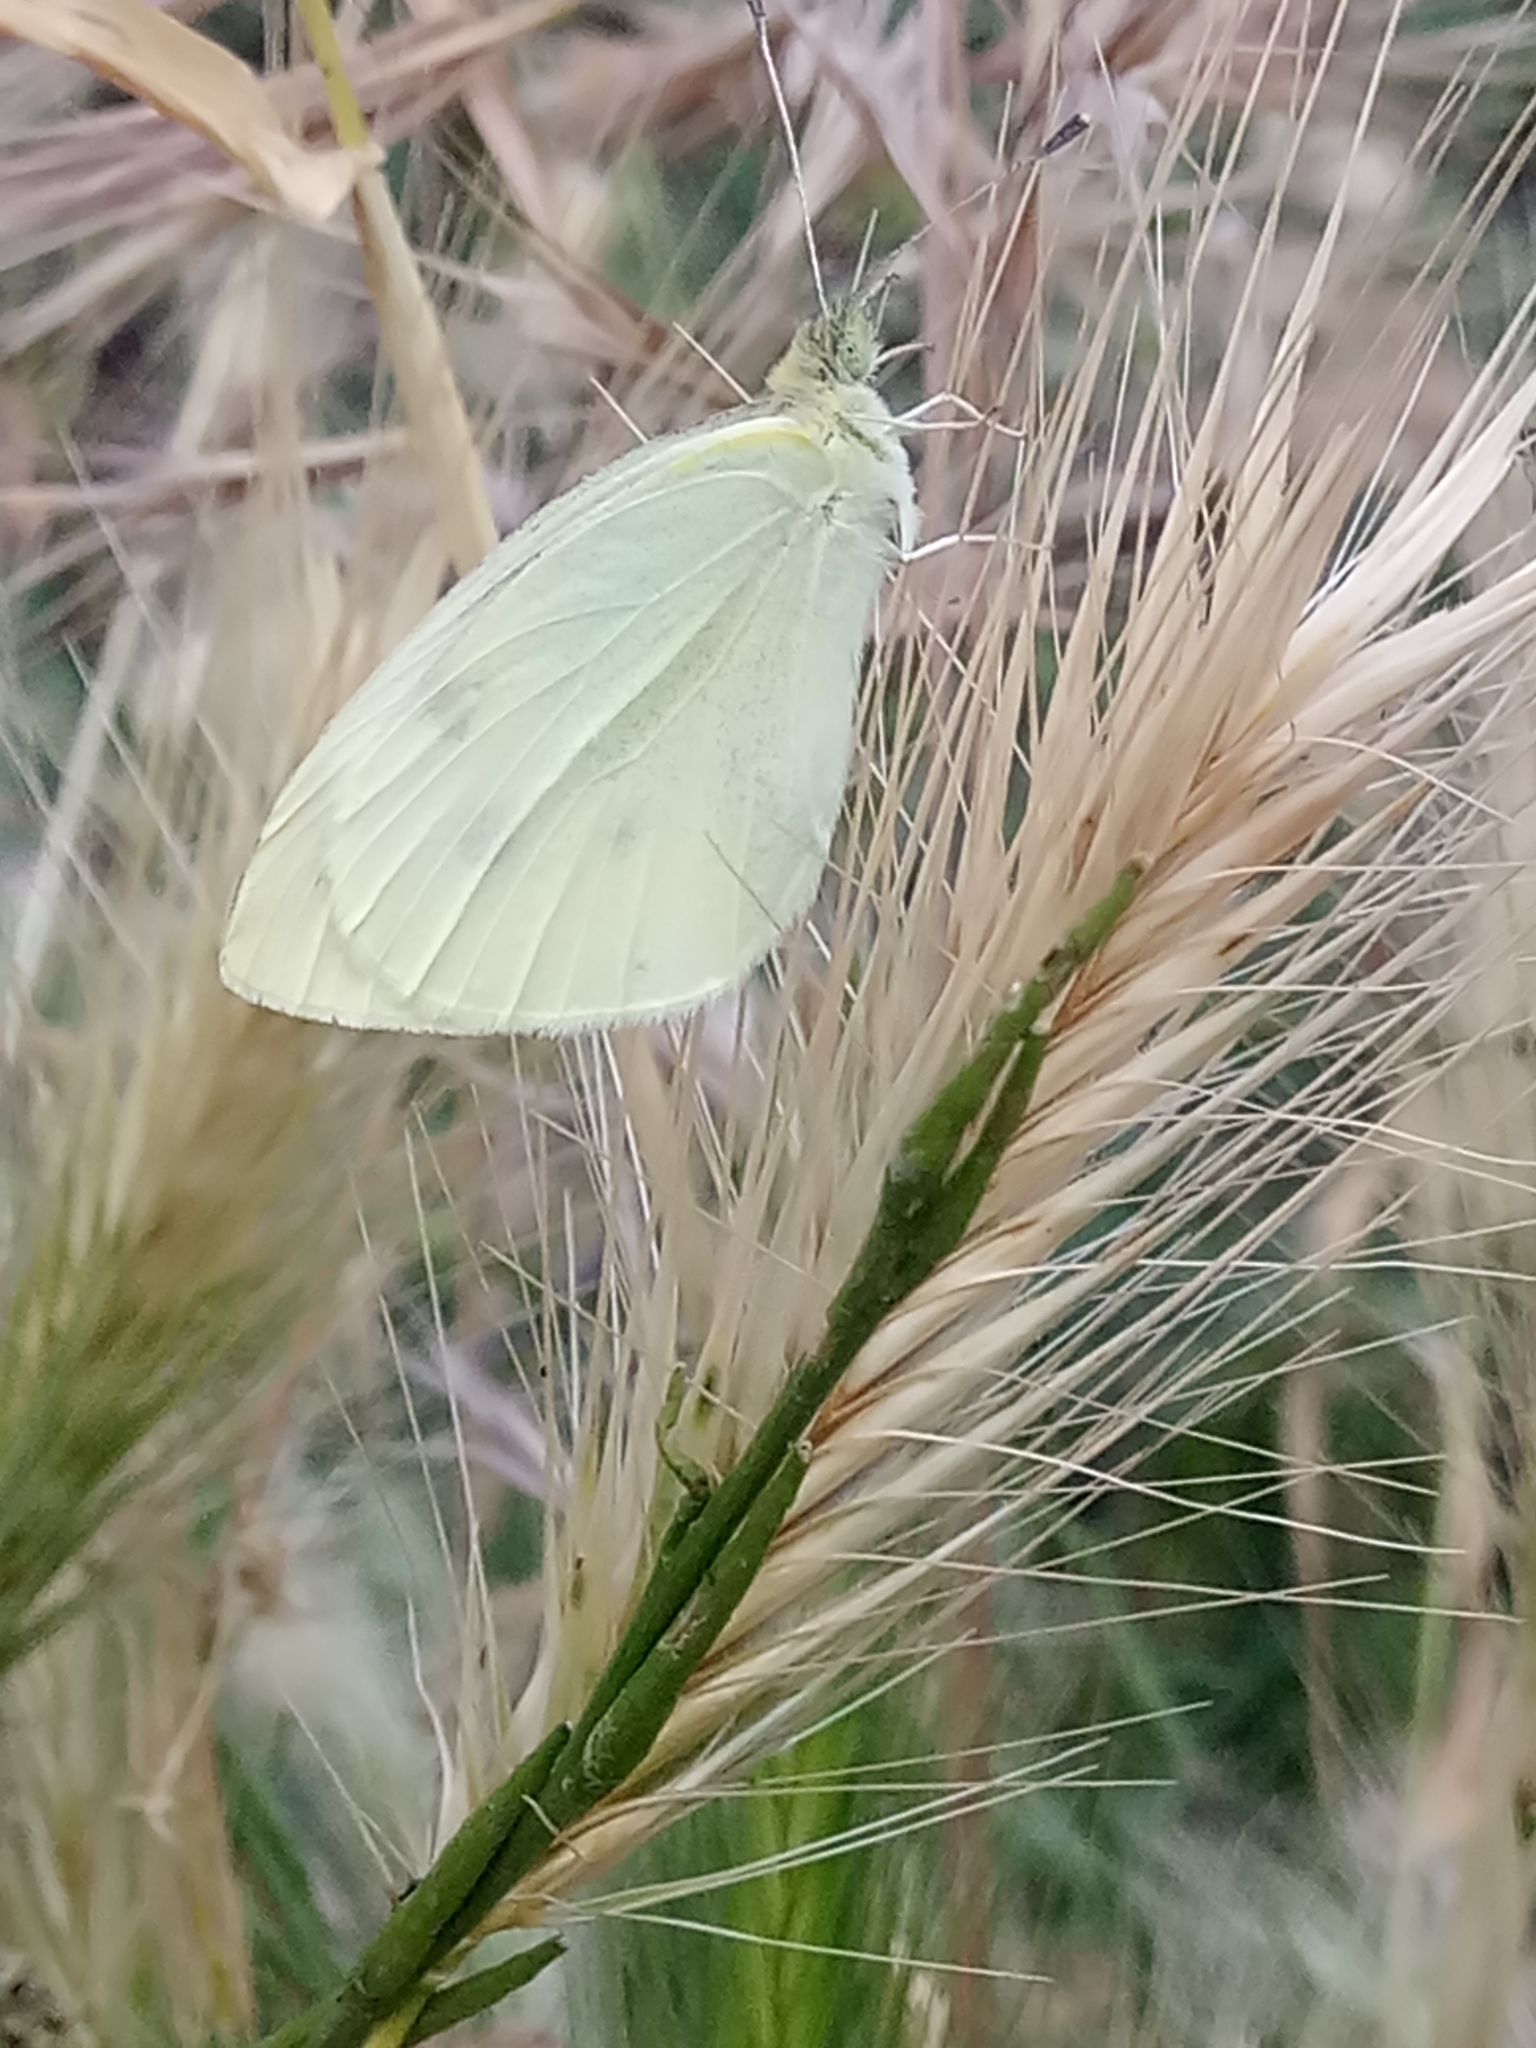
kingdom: Animalia
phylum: Arthropoda
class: Insecta
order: Lepidoptera
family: Pieridae
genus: Pieris
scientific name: Pieris rapae
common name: Small white
